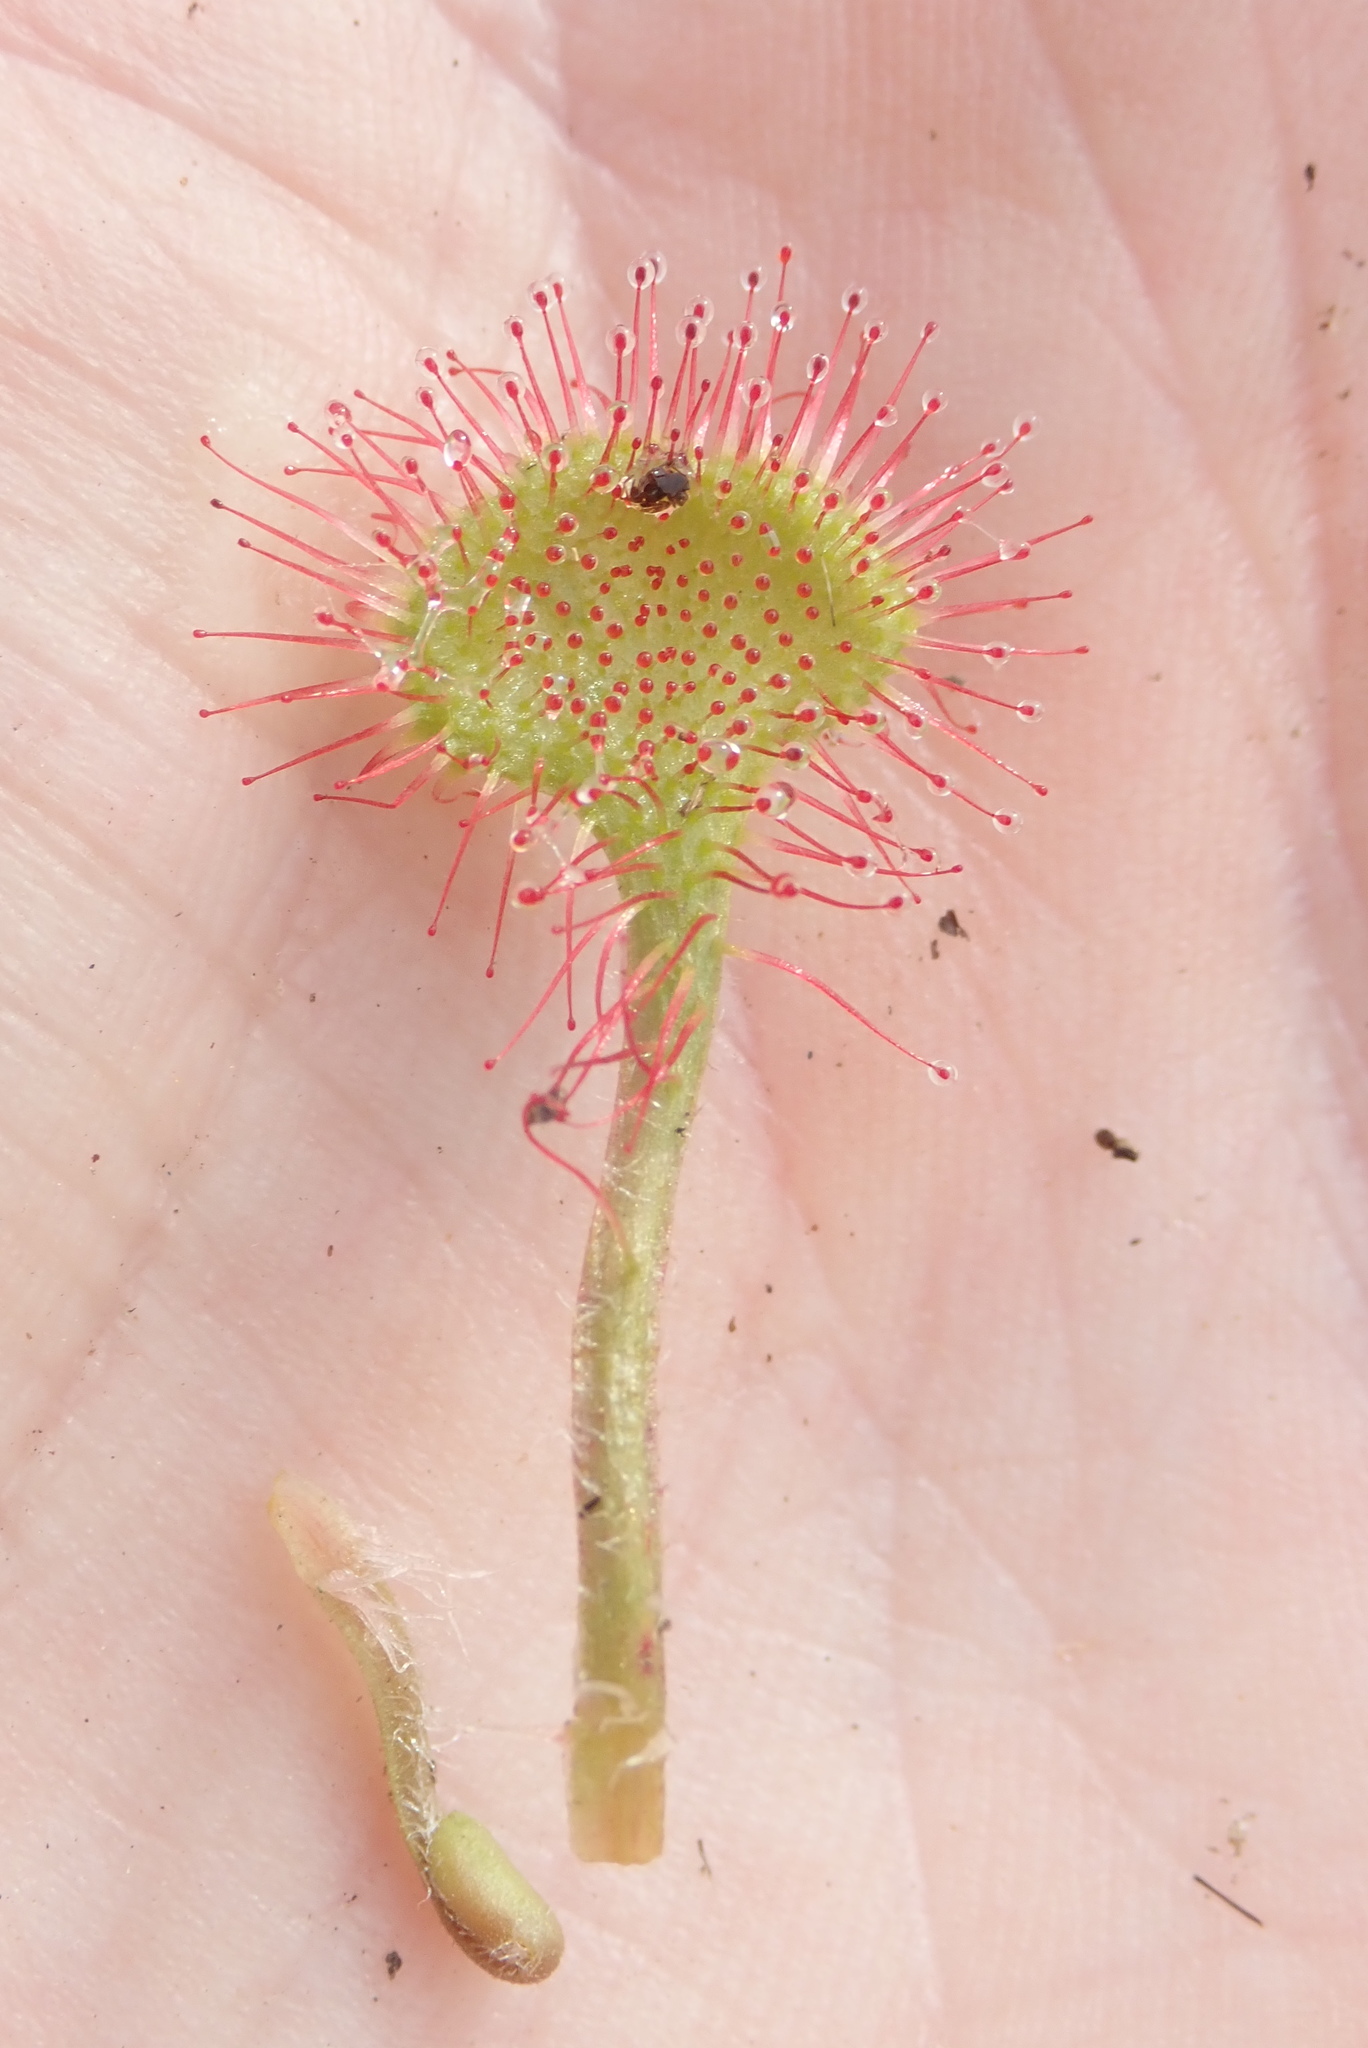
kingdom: Plantae
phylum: Tracheophyta
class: Magnoliopsida
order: Caryophyllales
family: Droseraceae
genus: Drosera
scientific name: Drosera rotundifolia
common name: Round-leaved sundew
